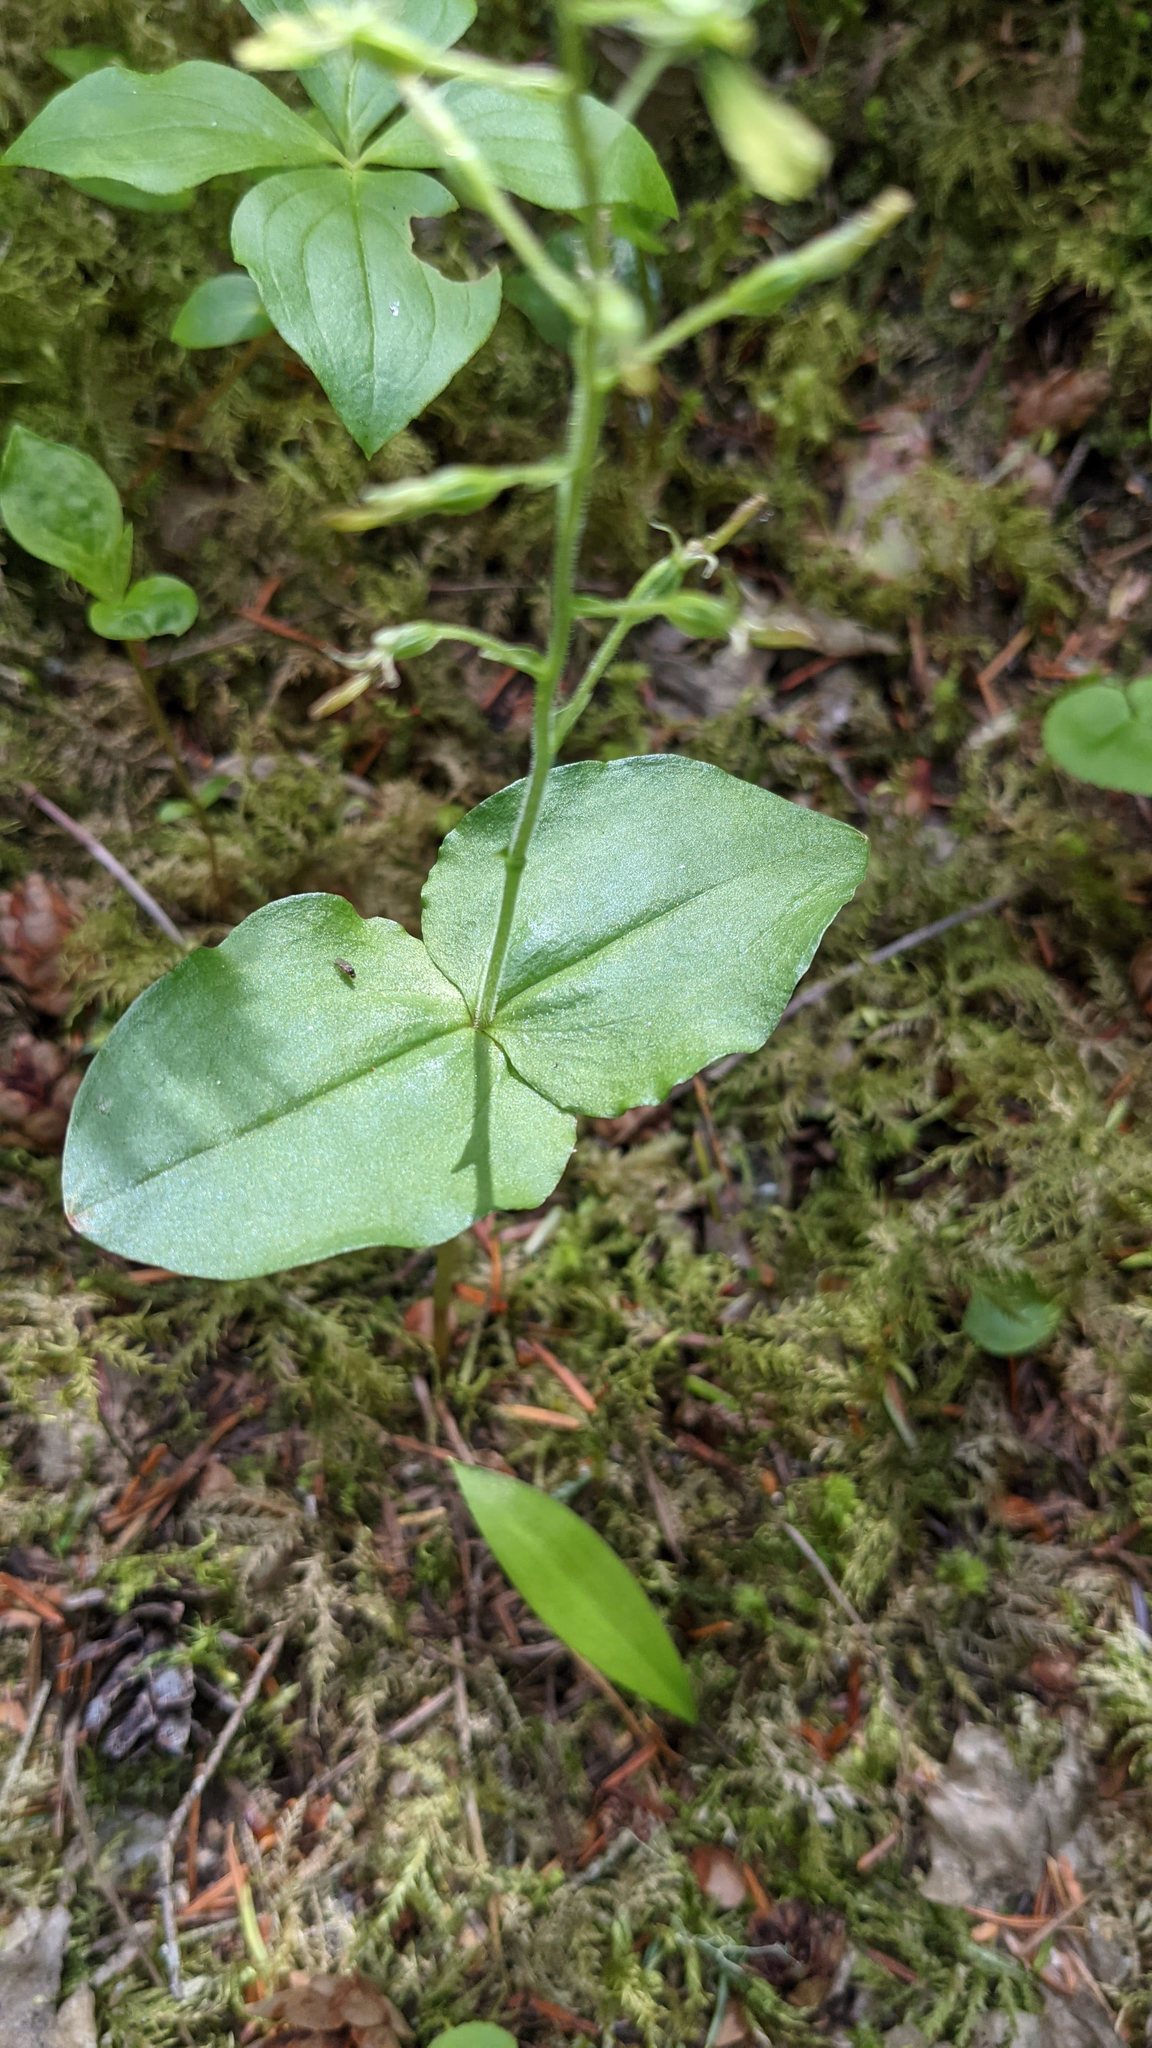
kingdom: Plantae
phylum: Tracheophyta
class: Liliopsida
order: Asparagales
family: Orchidaceae
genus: Neottia
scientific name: Neottia banksiana
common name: Northwestern twayblade
